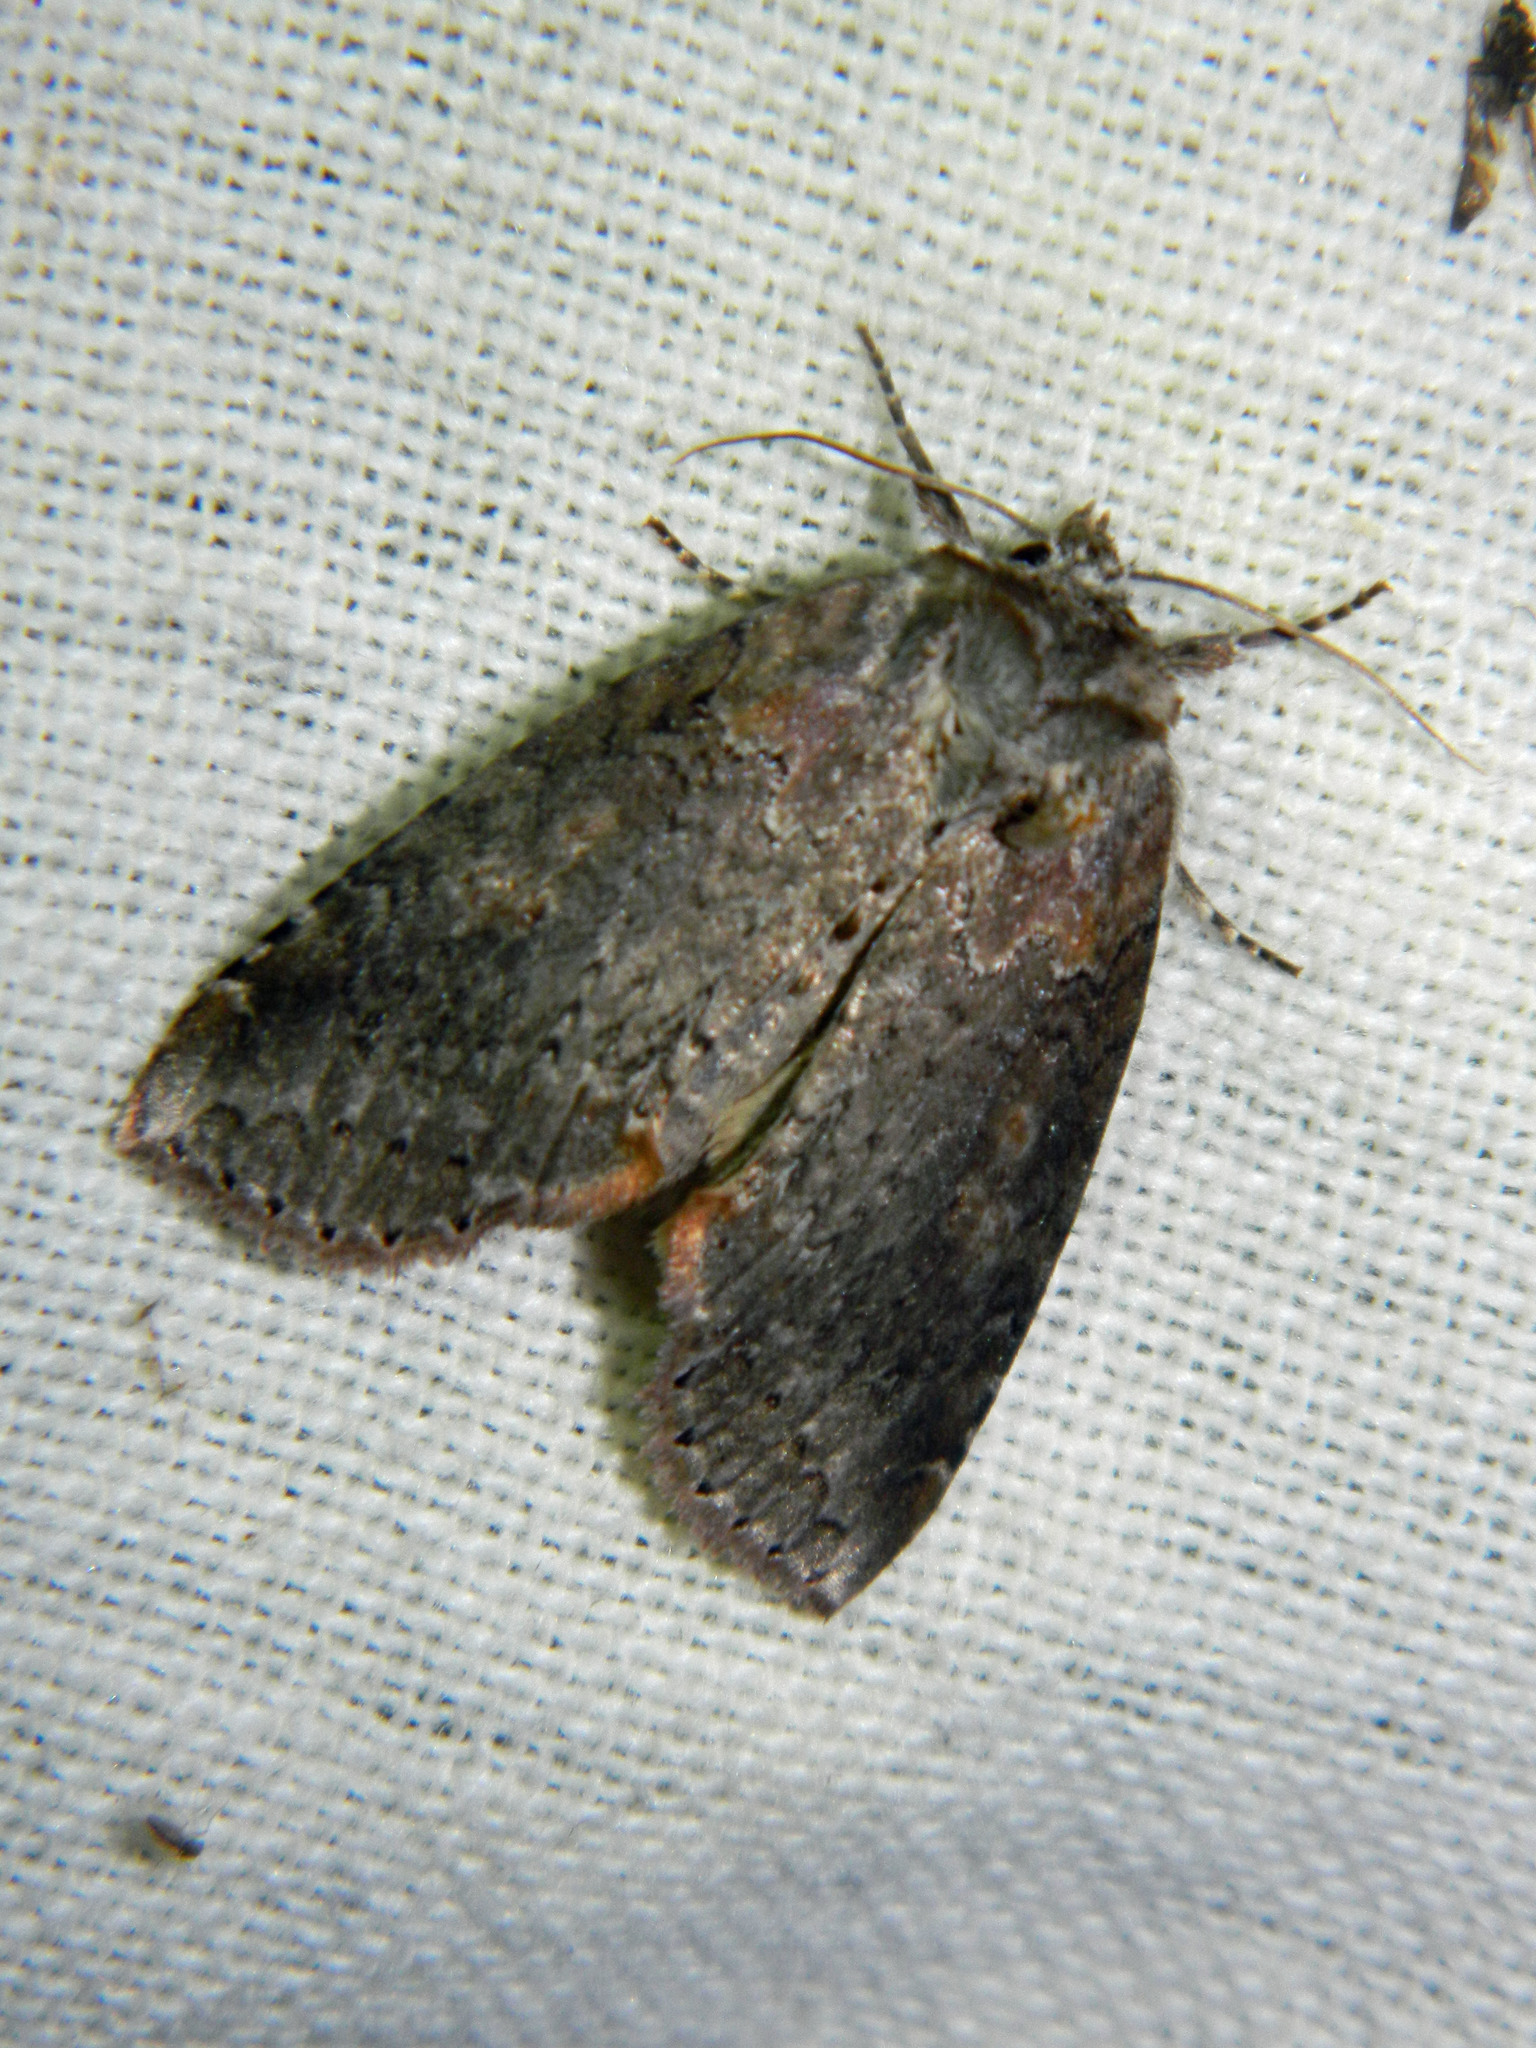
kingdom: Animalia
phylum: Arthropoda
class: Insecta
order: Lepidoptera
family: Drepanidae
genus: Pseudothyatira
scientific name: Pseudothyatira cymatophoroides
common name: Tufted thyatirid moth
